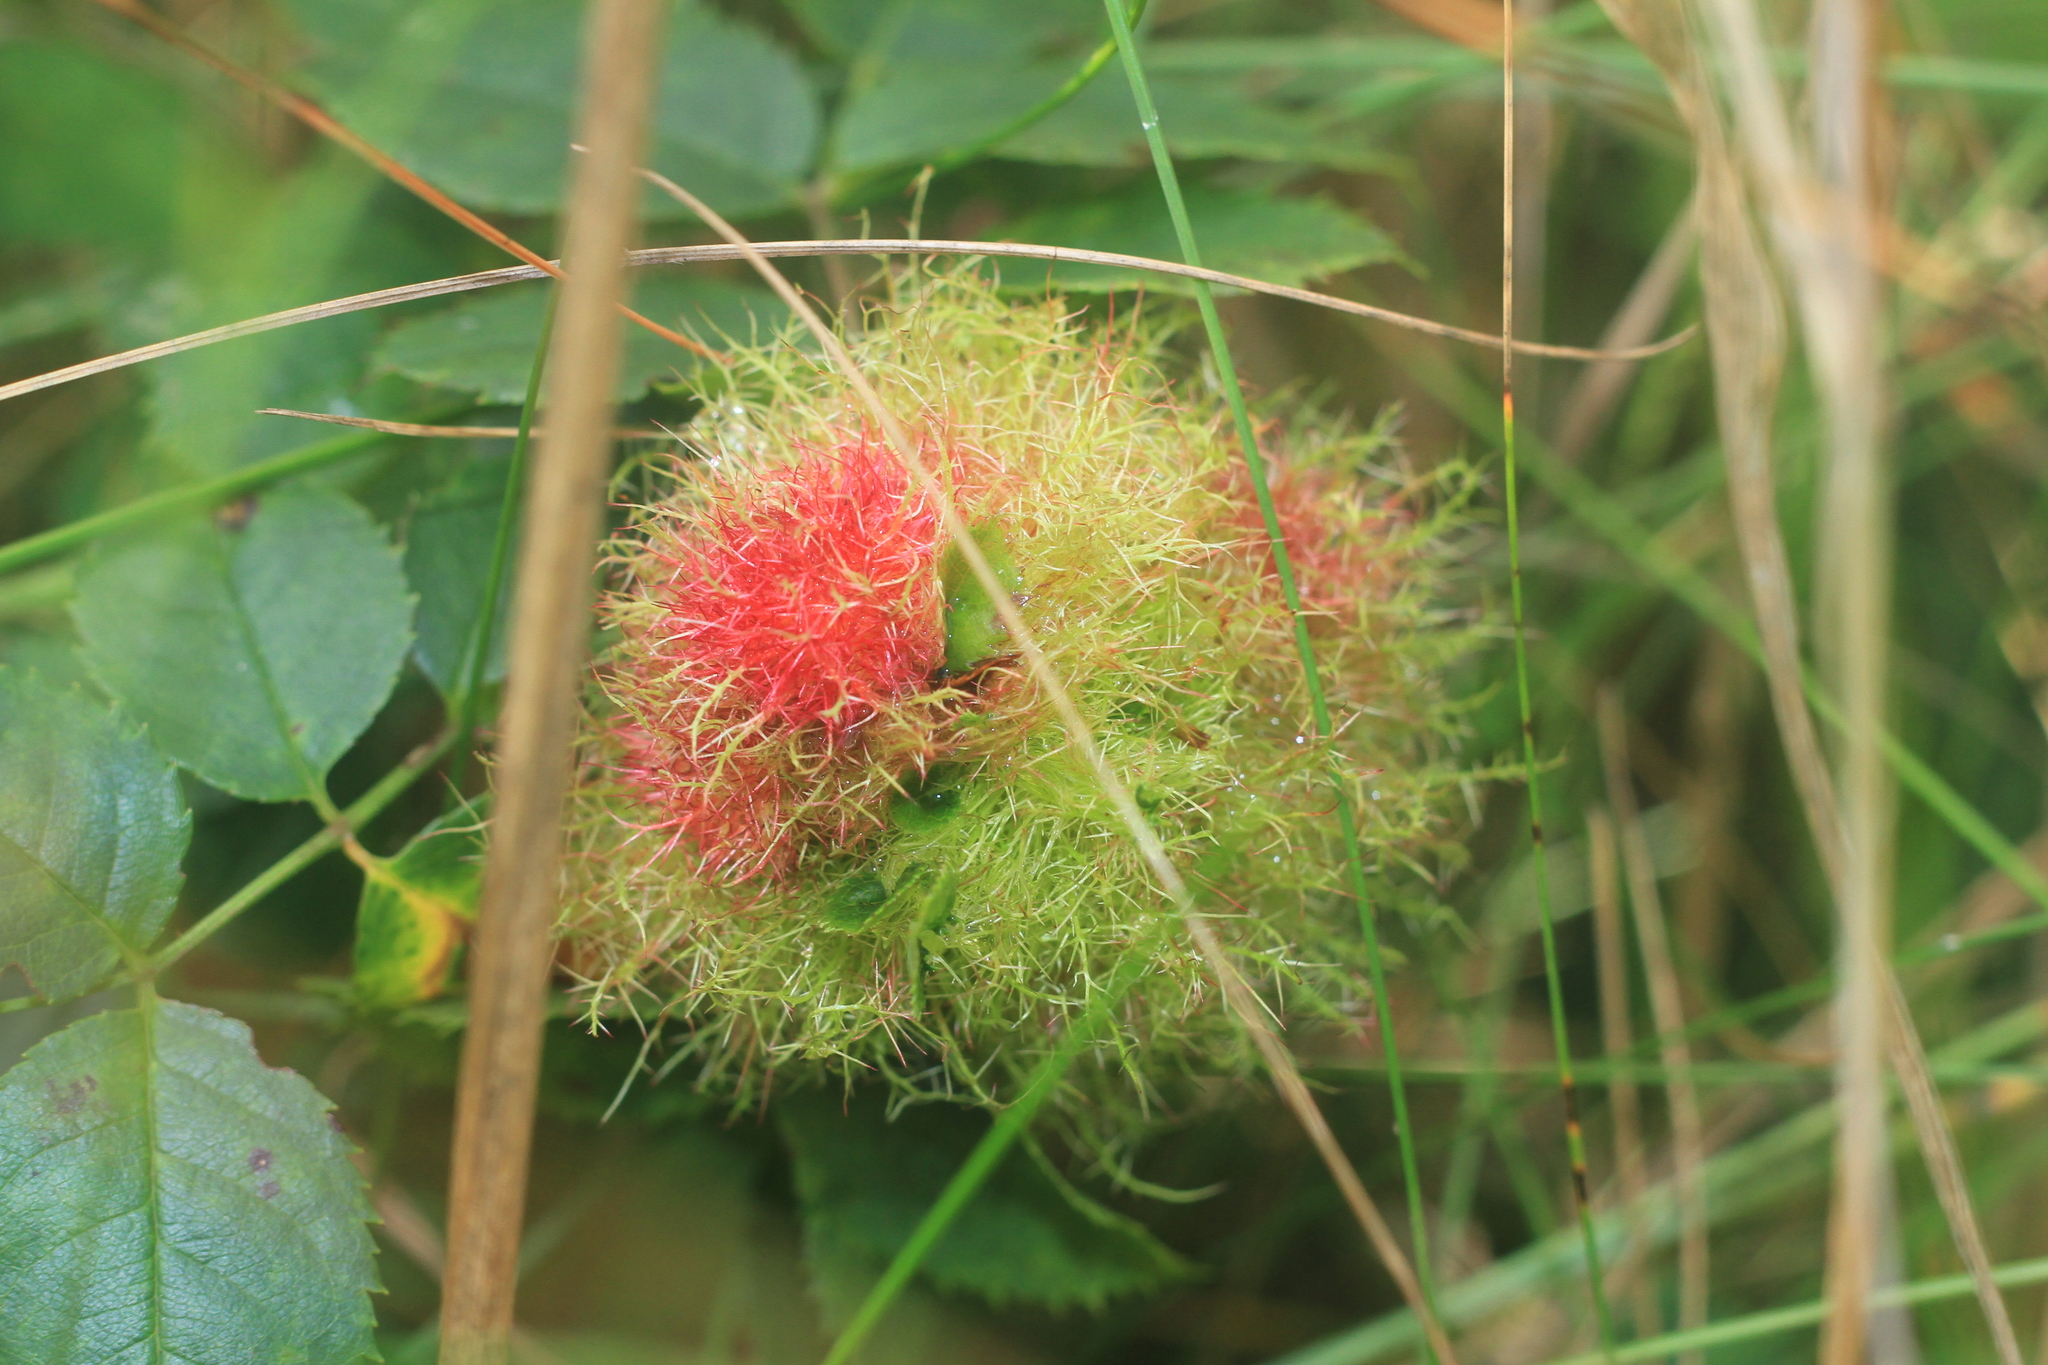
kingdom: Animalia
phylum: Arthropoda
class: Insecta
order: Hymenoptera
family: Cynipidae
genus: Diplolepis
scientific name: Diplolepis rosae
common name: Bedeguar gall
